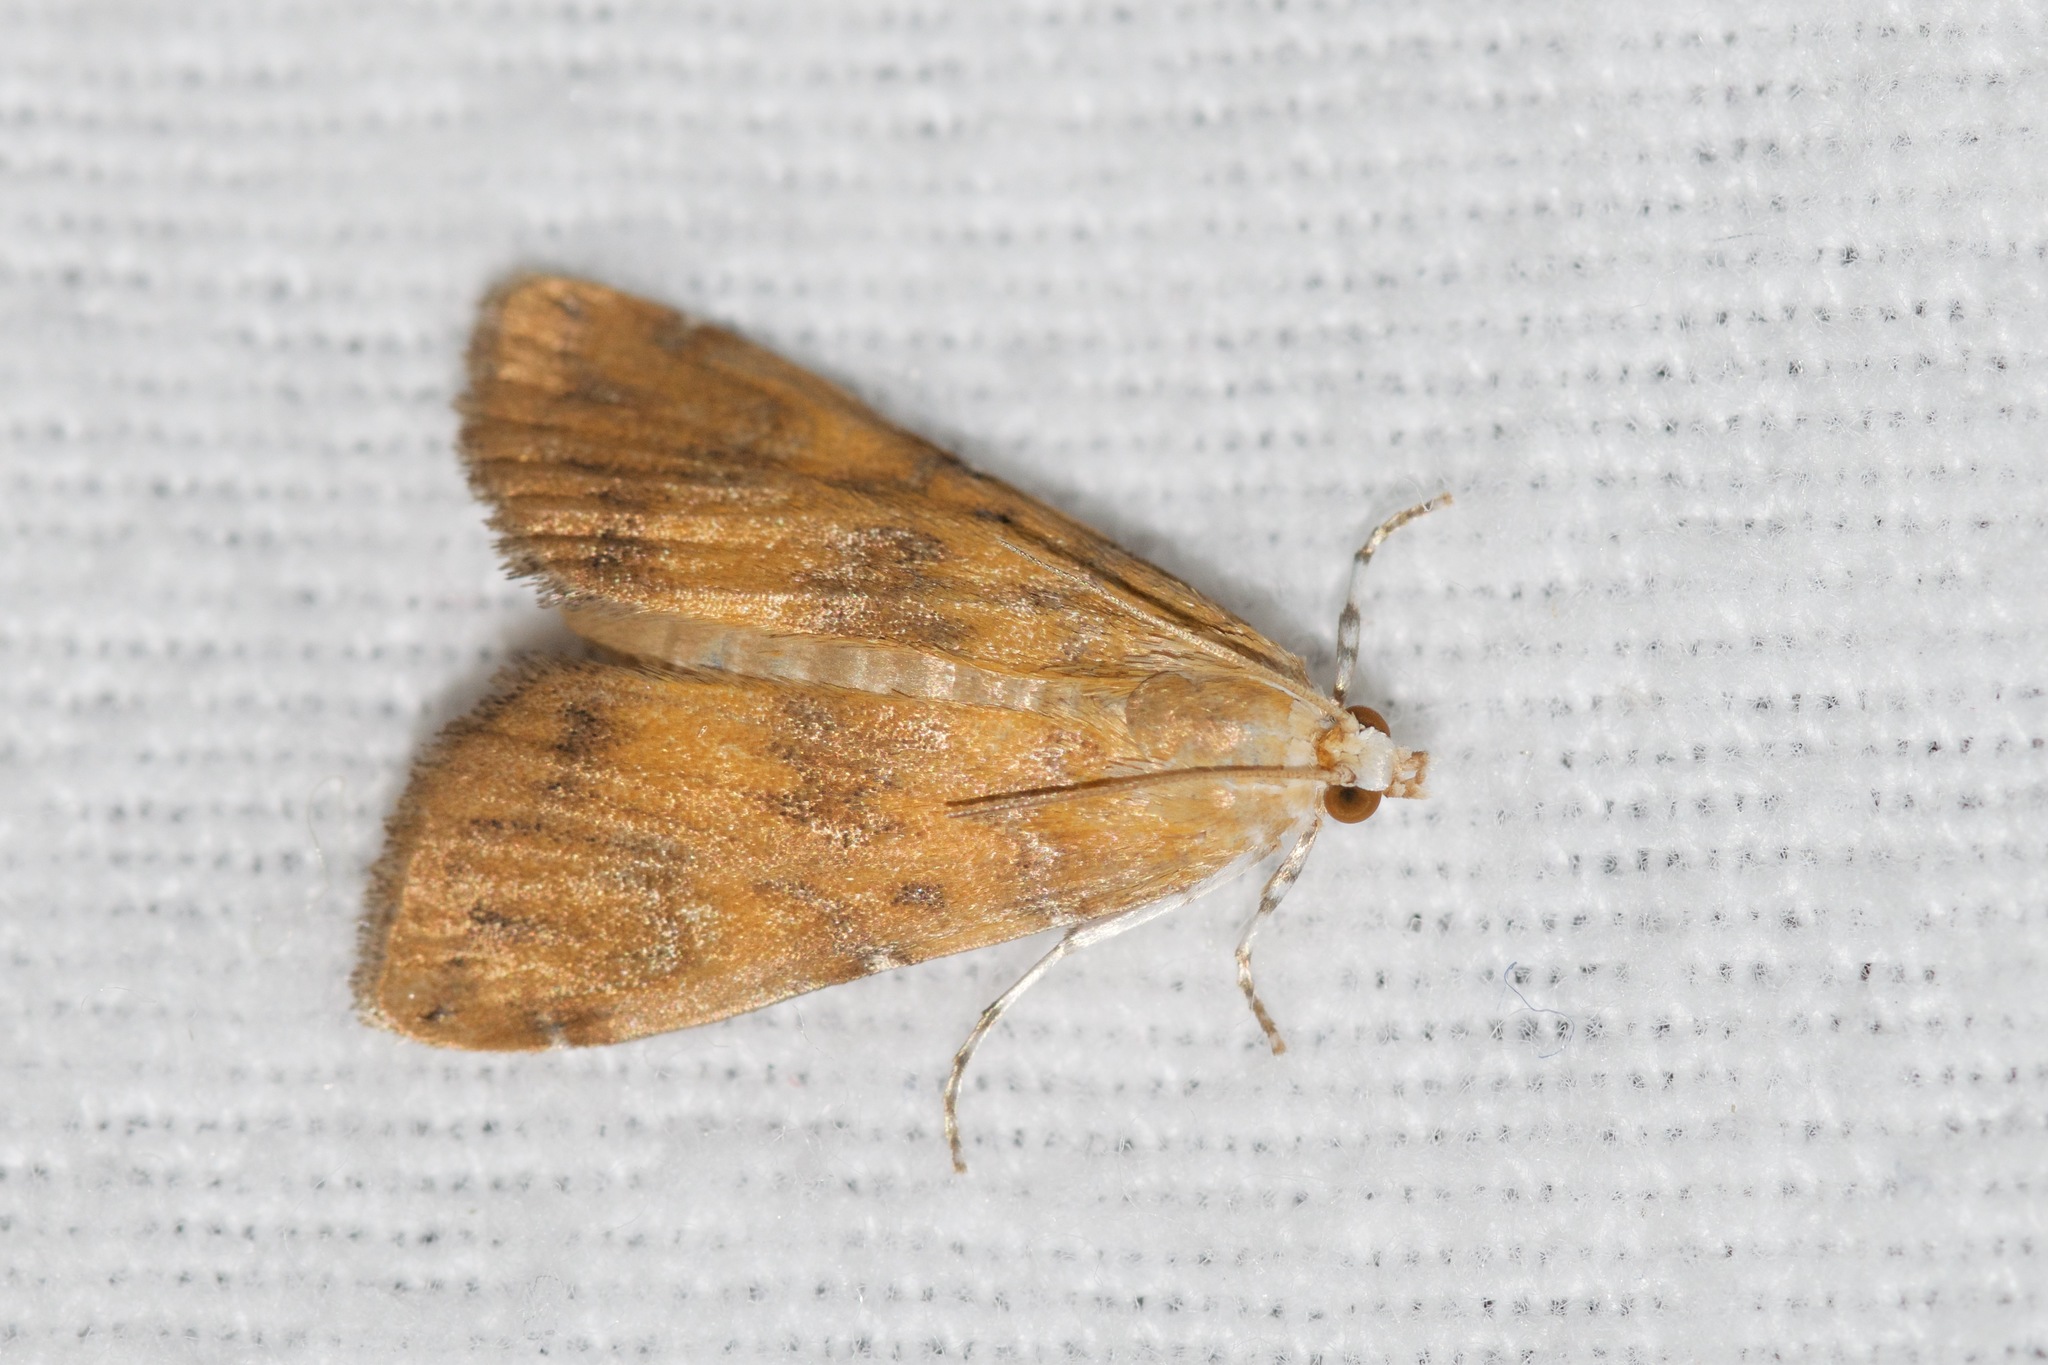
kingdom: Animalia
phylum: Arthropoda
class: Insecta
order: Lepidoptera
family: Crambidae
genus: Elophila
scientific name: Elophila gyralis
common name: Waterlily borer moth
